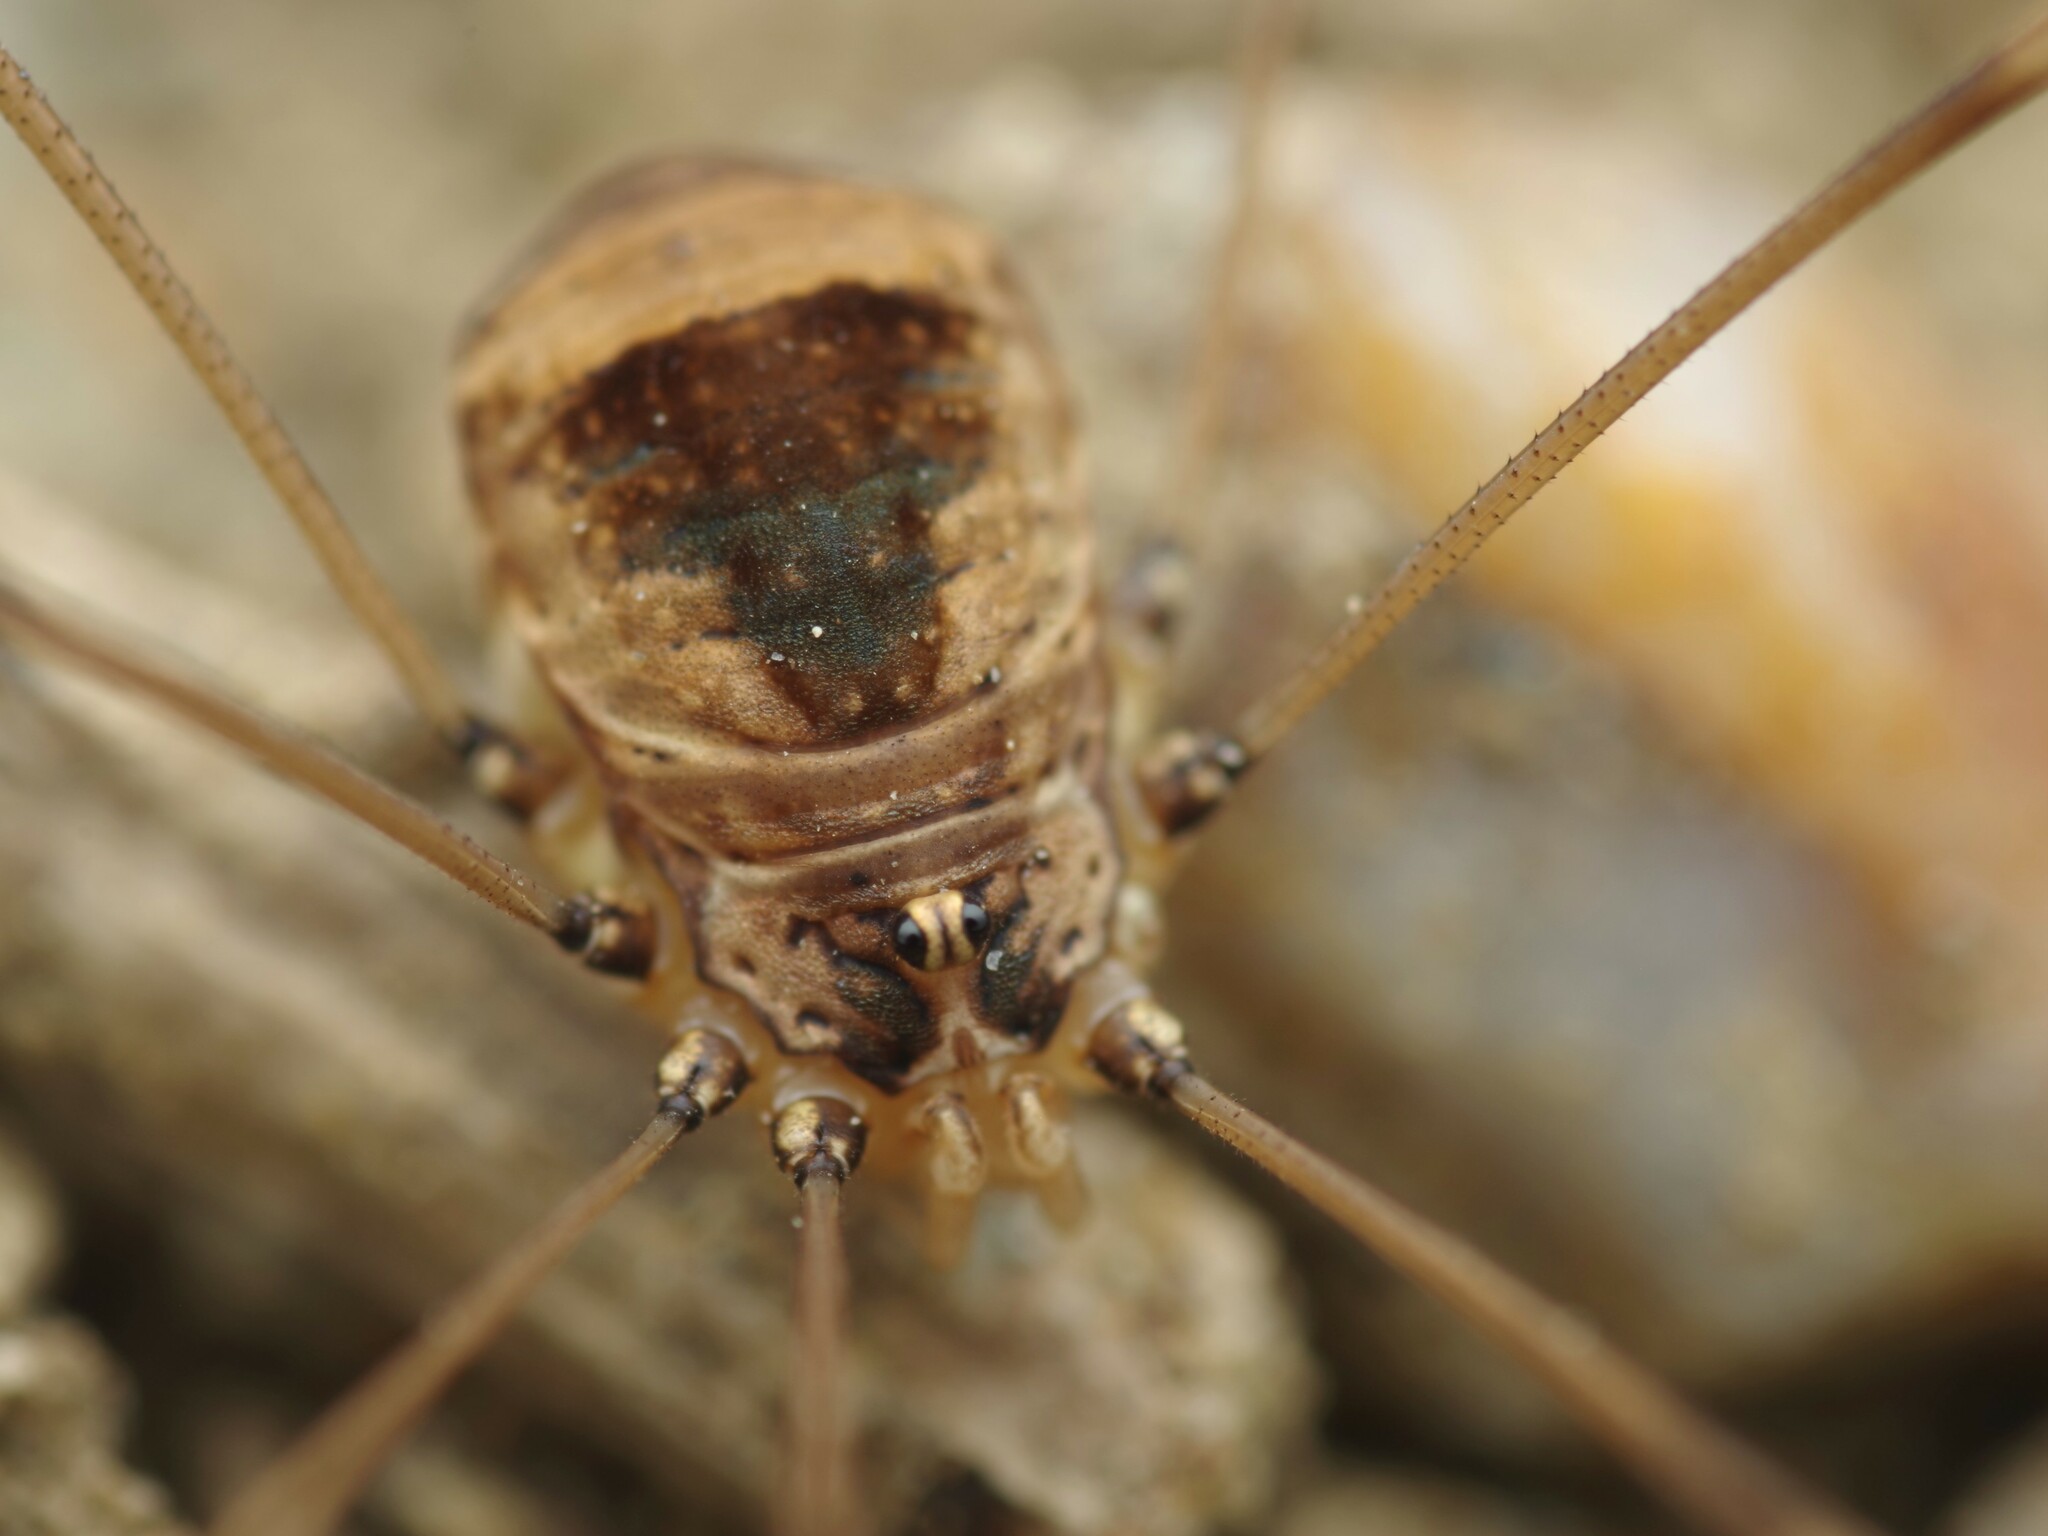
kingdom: Animalia
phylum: Arthropoda
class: Arachnida
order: Opiliones
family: Sclerosomatidae
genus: Leiobunum
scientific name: Leiobunum blackwalli
